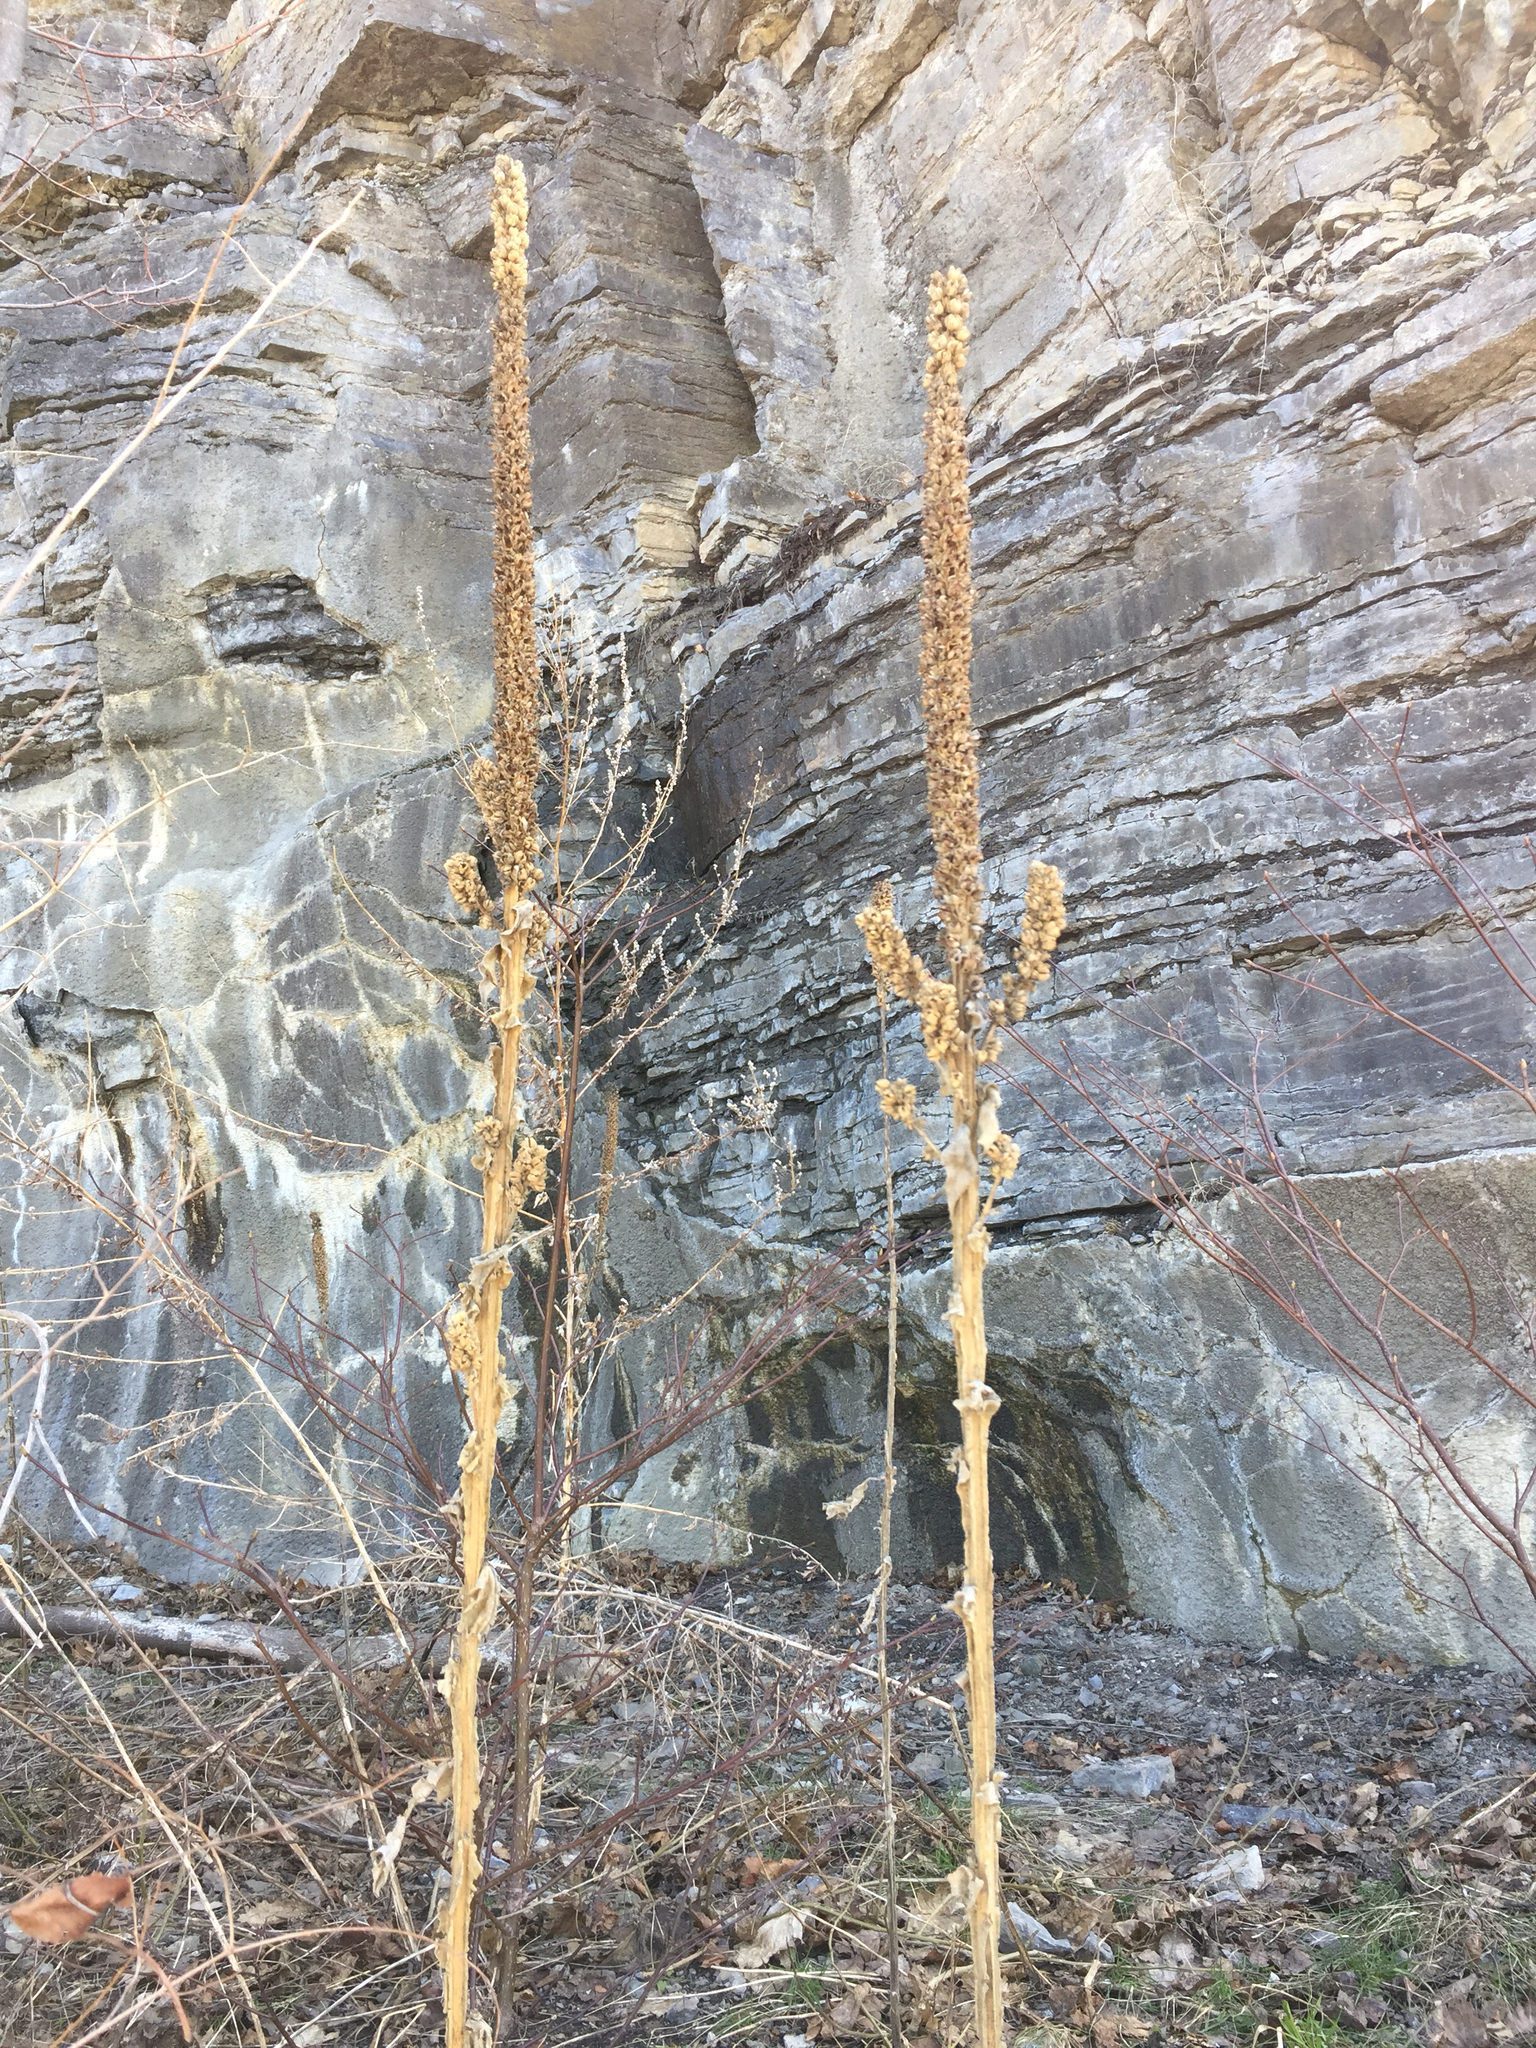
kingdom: Plantae
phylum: Tracheophyta
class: Magnoliopsida
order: Lamiales
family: Scrophulariaceae
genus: Verbascum
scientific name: Verbascum thapsus
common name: Common mullein
